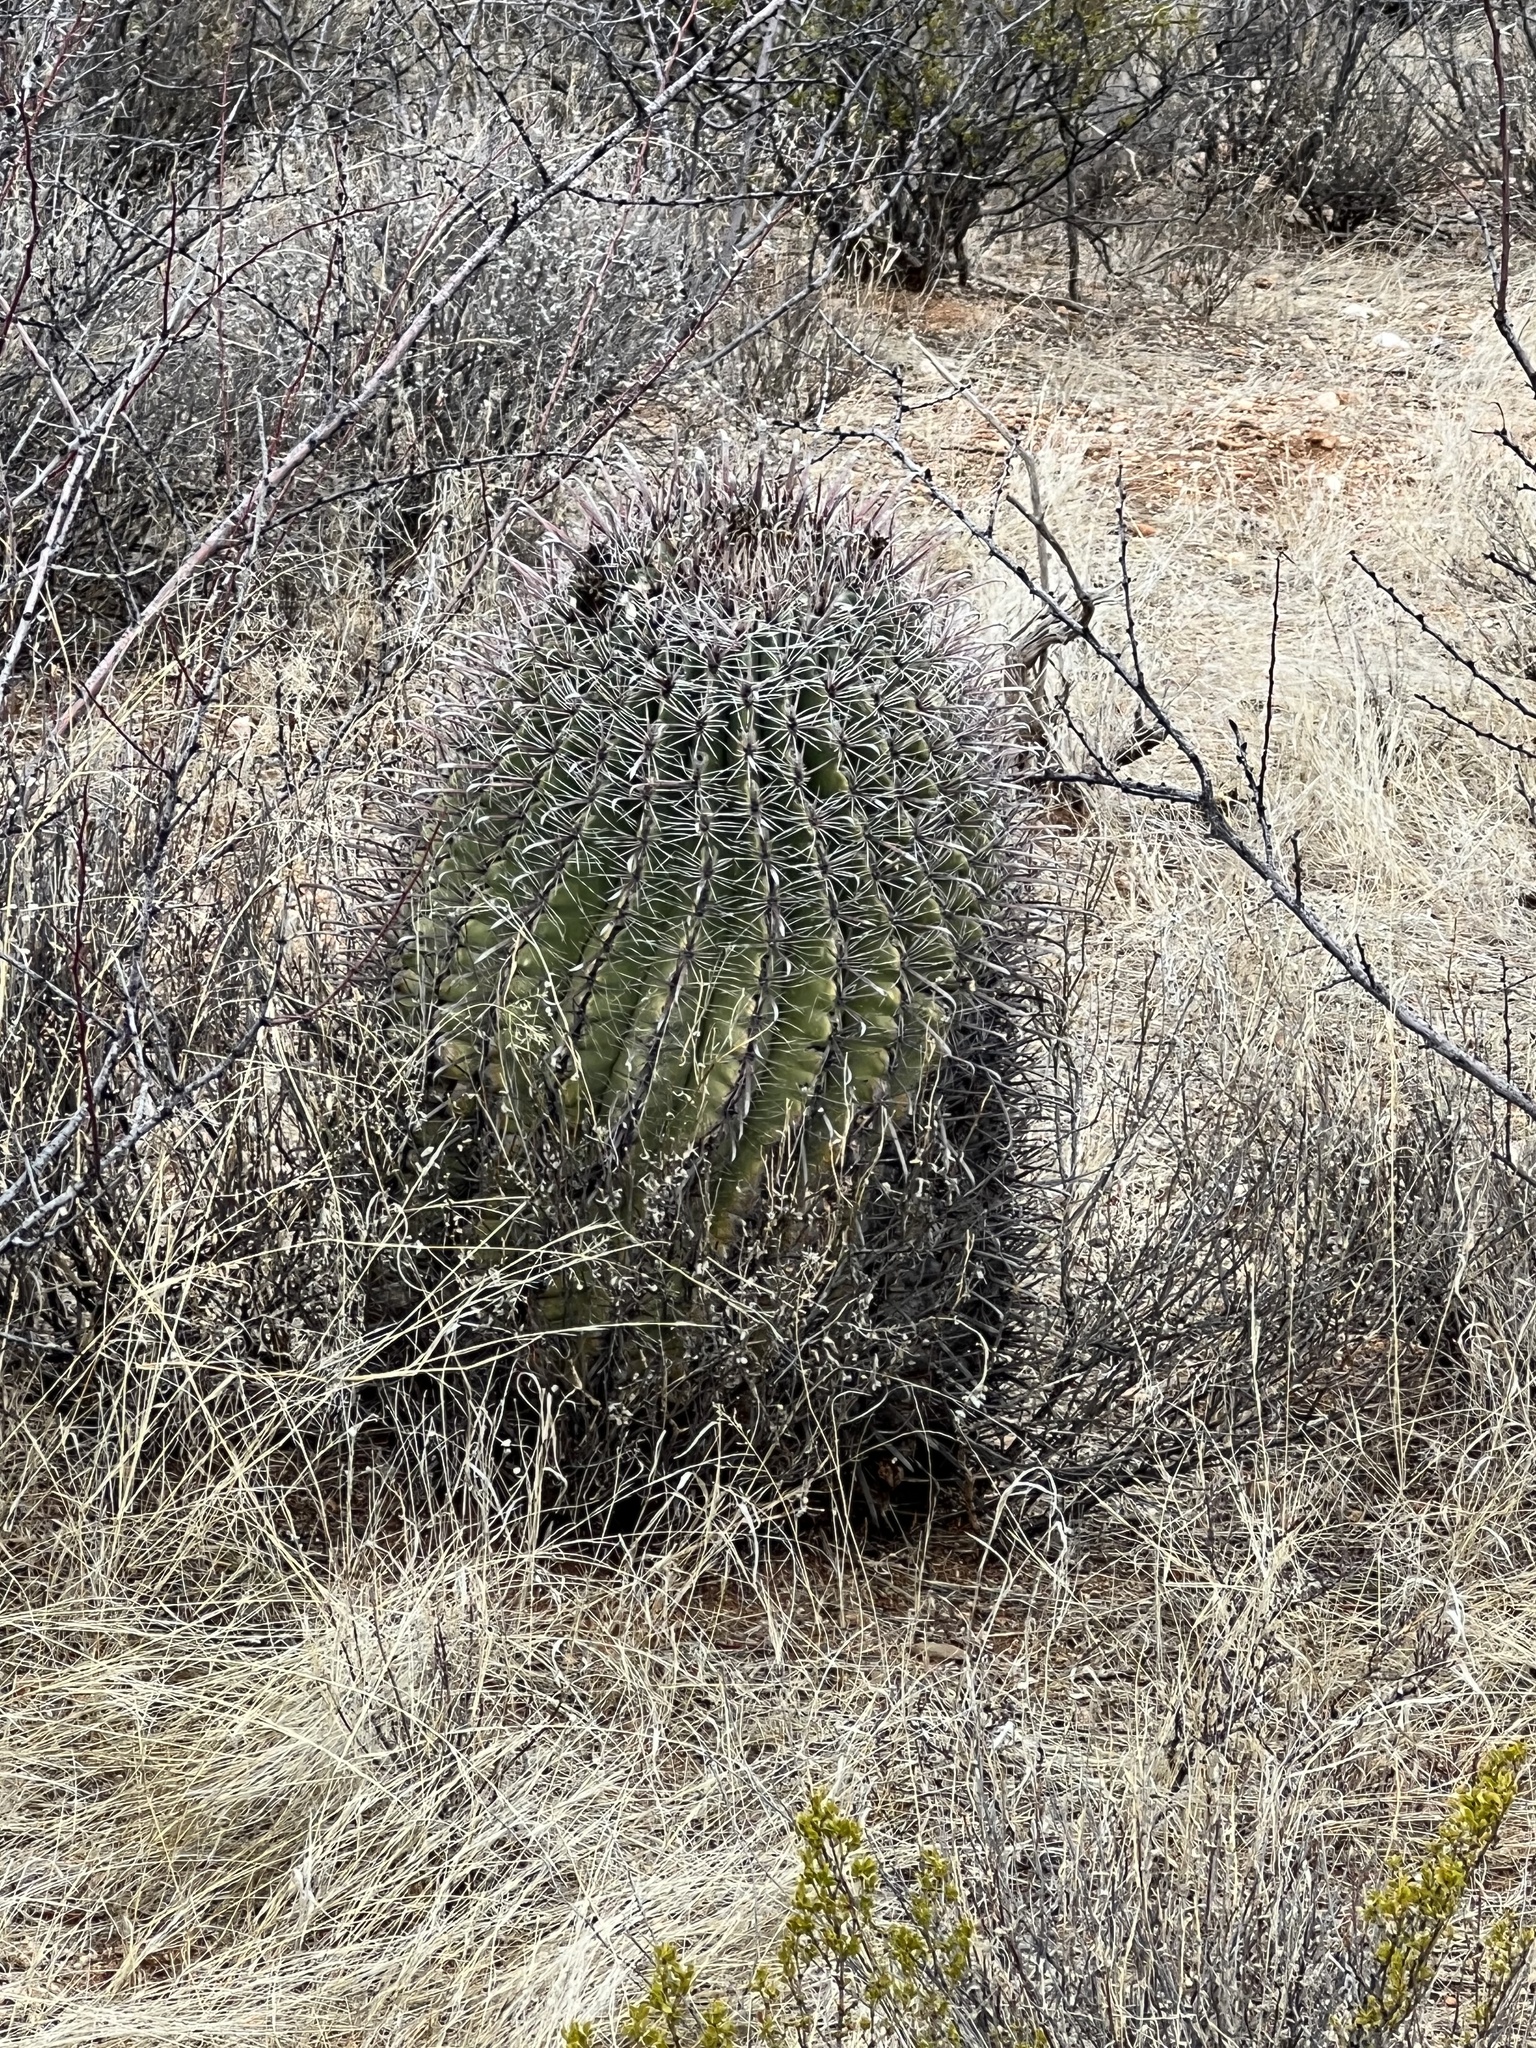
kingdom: Plantae
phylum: Tracheophyta
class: Magnoliopsida
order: Caryophyllales
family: Cactaceae
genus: Ferocactus
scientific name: Ferocactus wislizeni
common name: Candy barrel cactus
